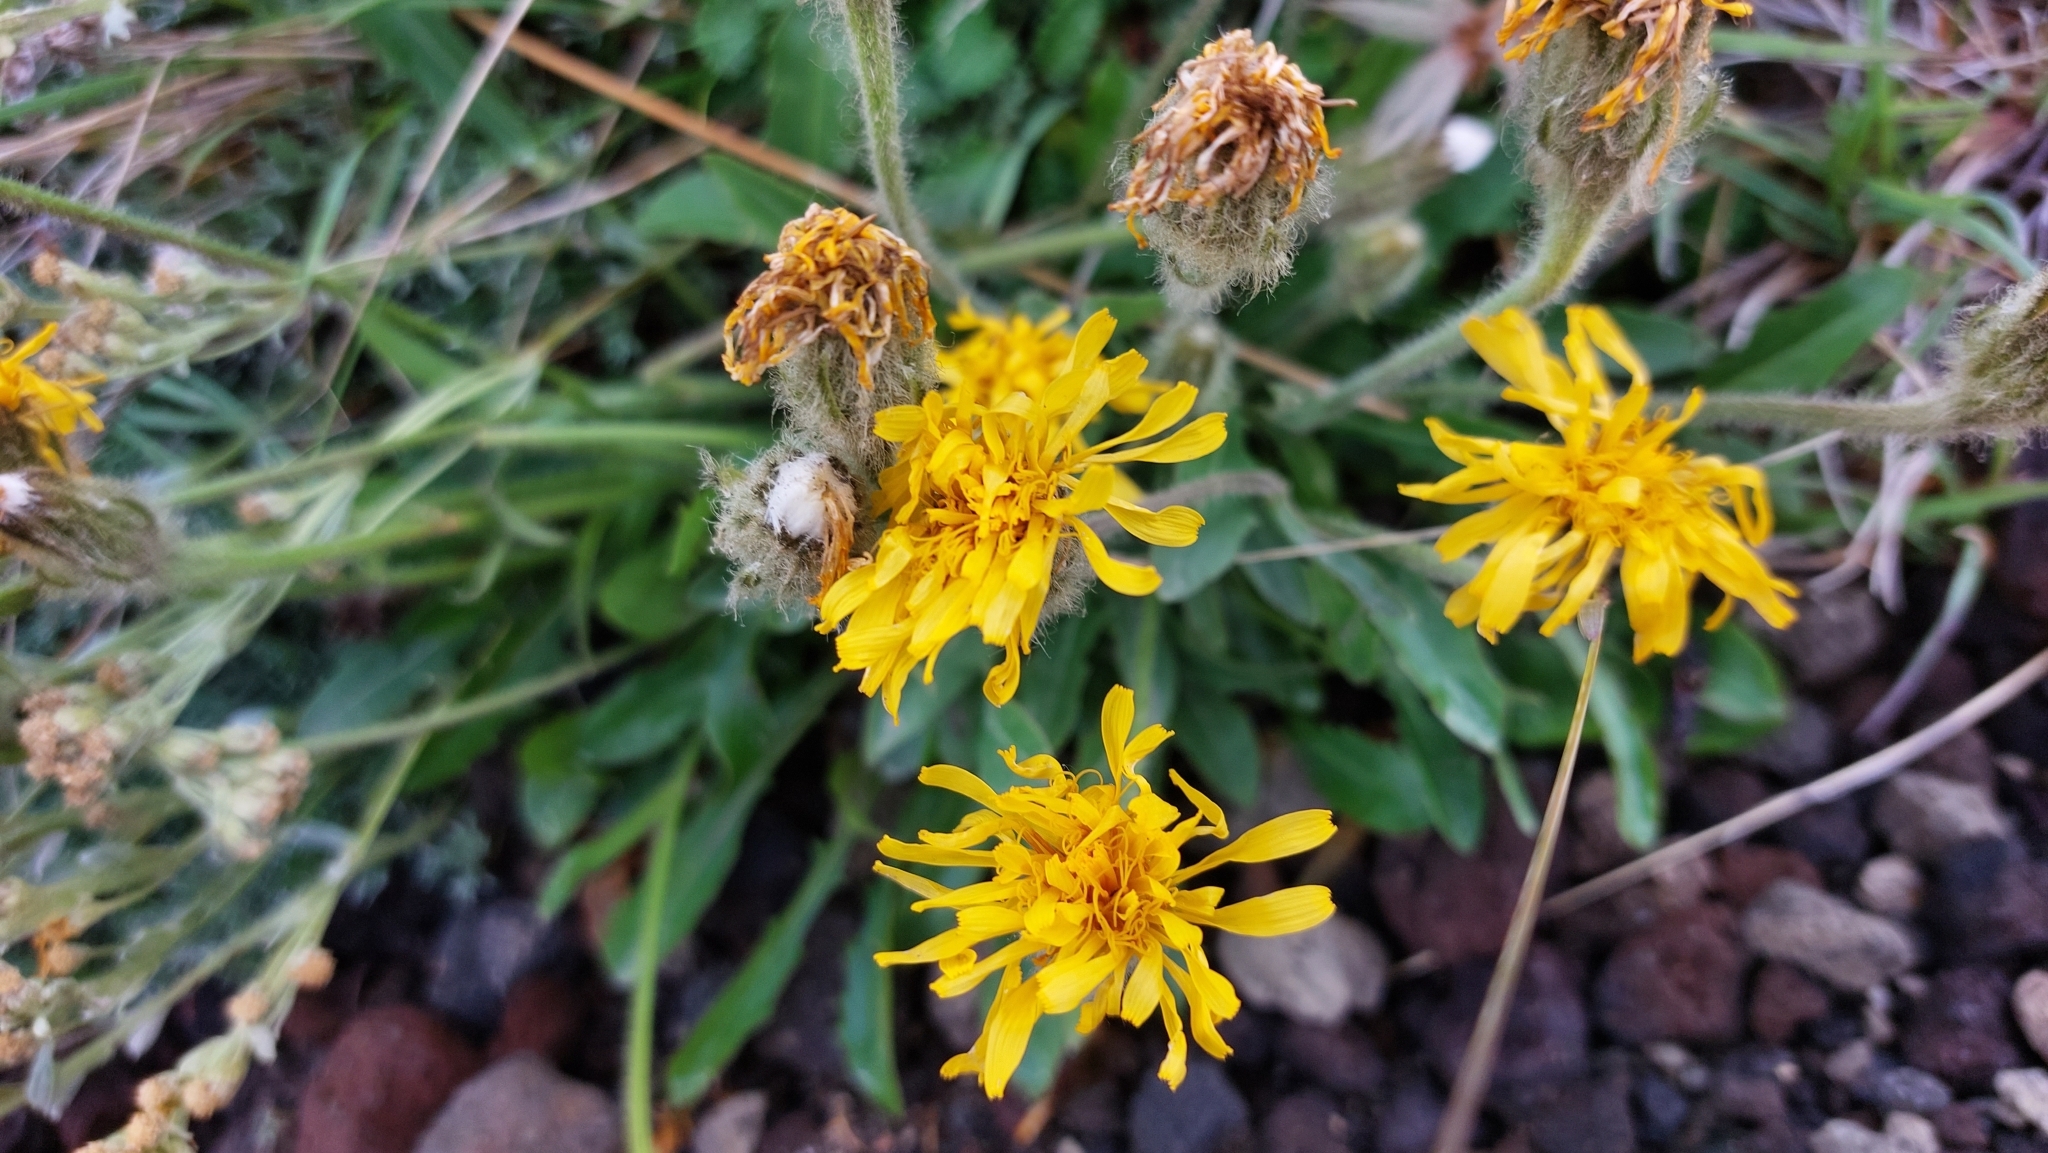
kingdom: Plantae
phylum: Tracheophyta
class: Magnoliopsida
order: Asterales
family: Asteraceae
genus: Crepis
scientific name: Crepis chrysantha
